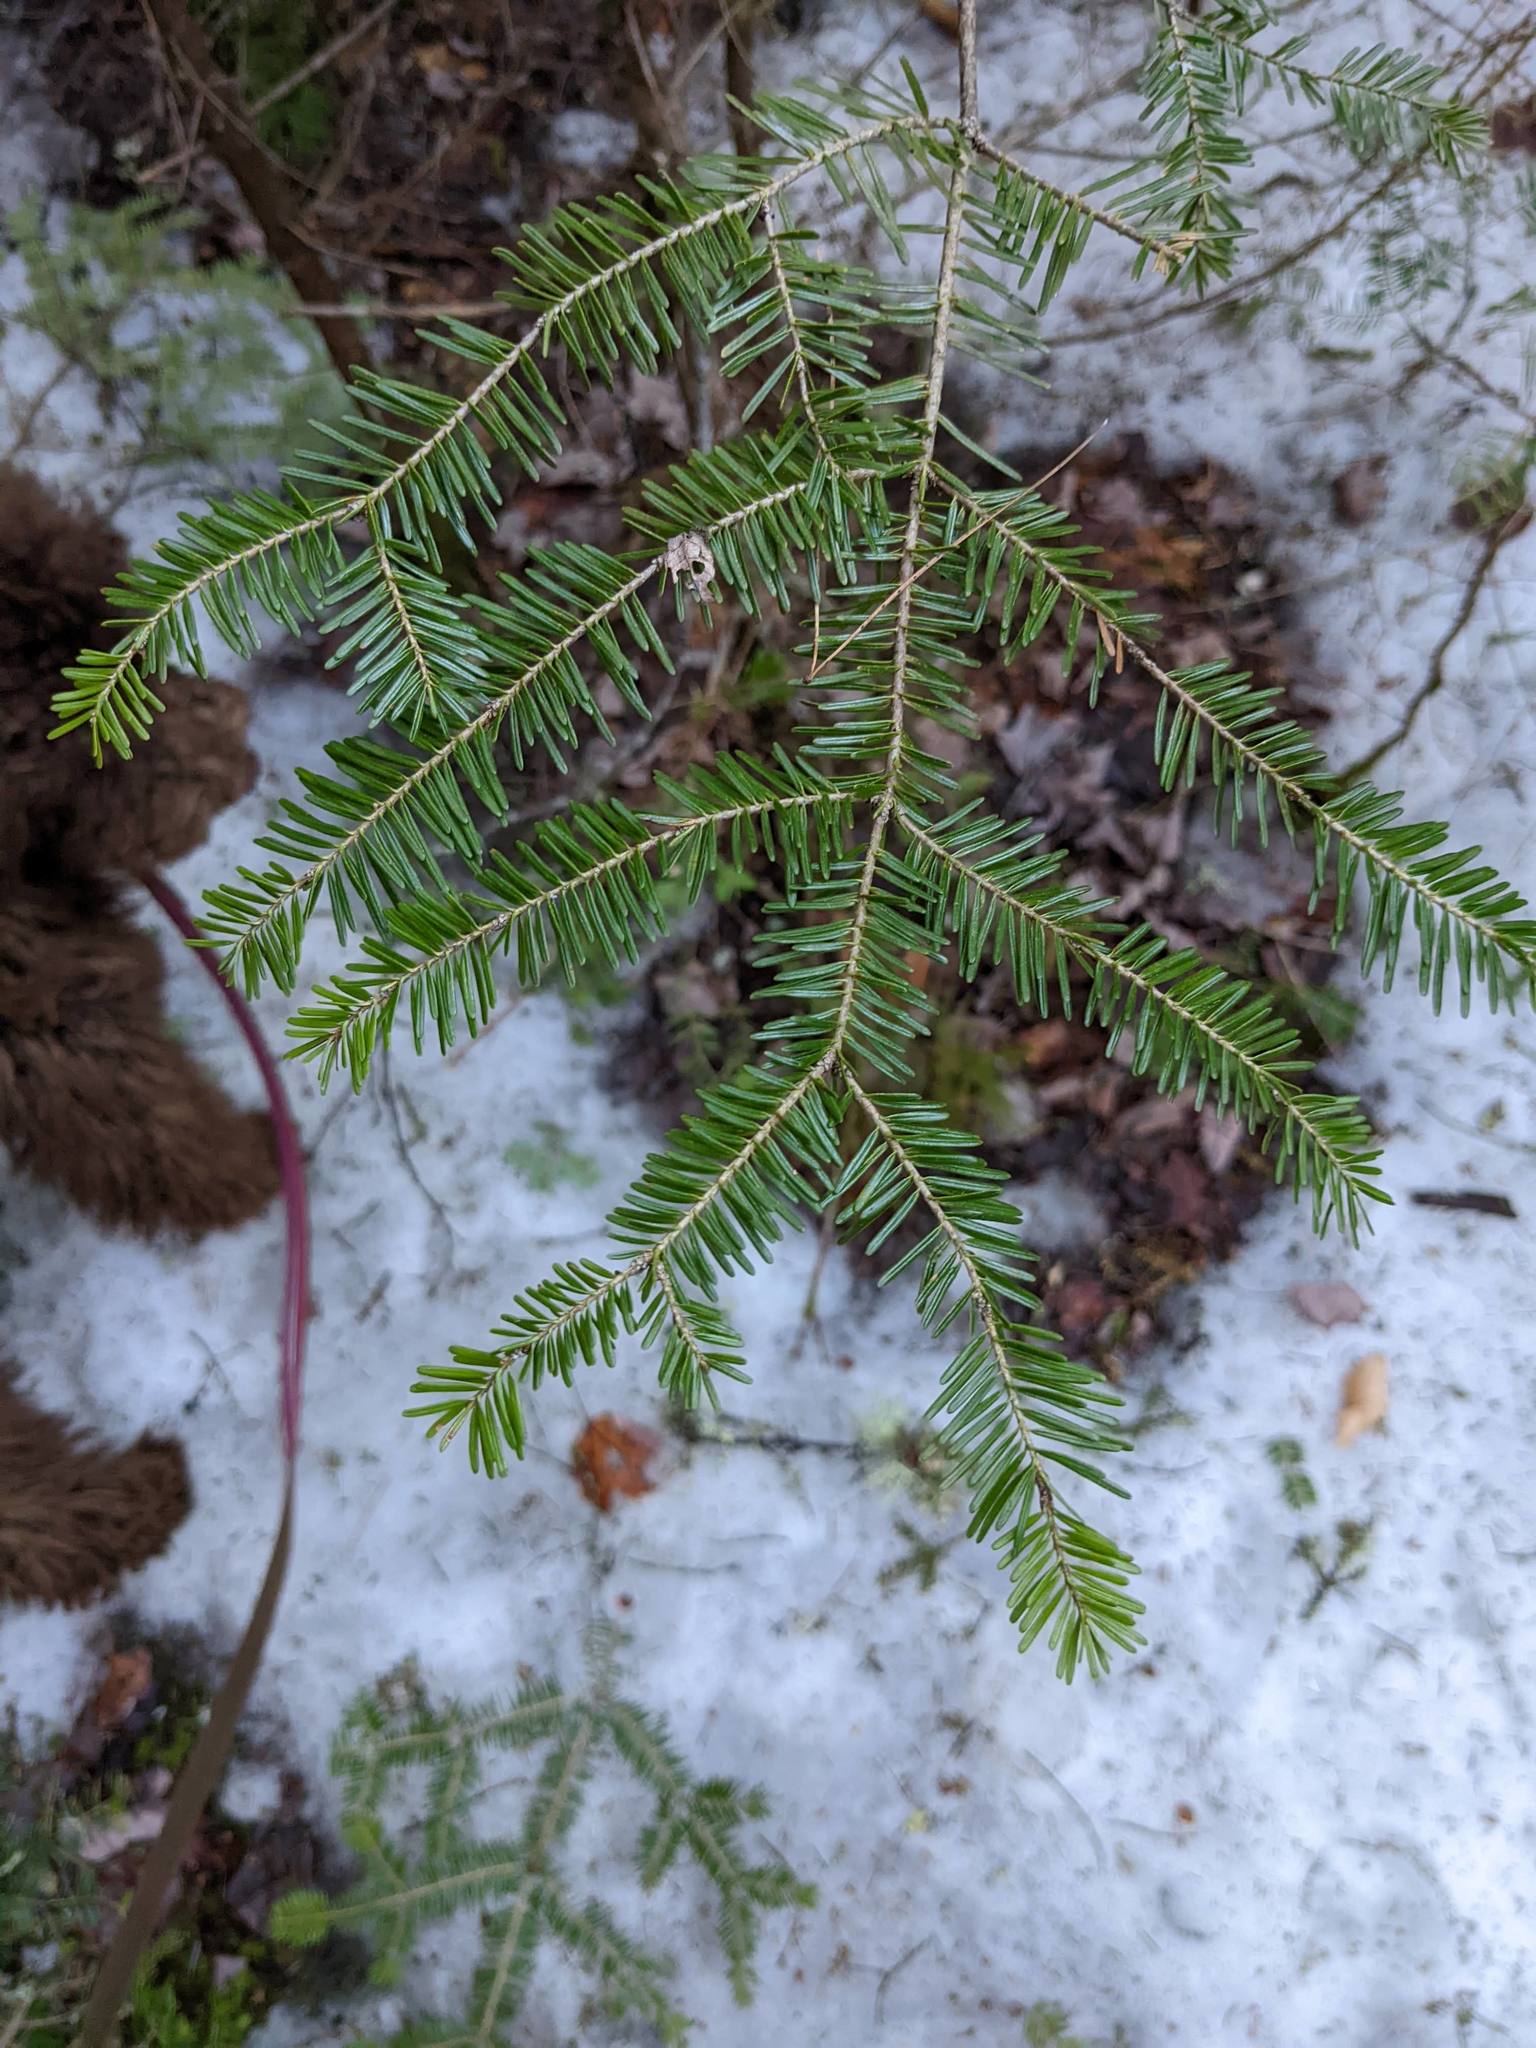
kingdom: Plantae
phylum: Tracheophyta
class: Pinopsida
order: Pinales
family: Pinaceae
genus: Abies
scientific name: Abies balsamea
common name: Balsam fir
